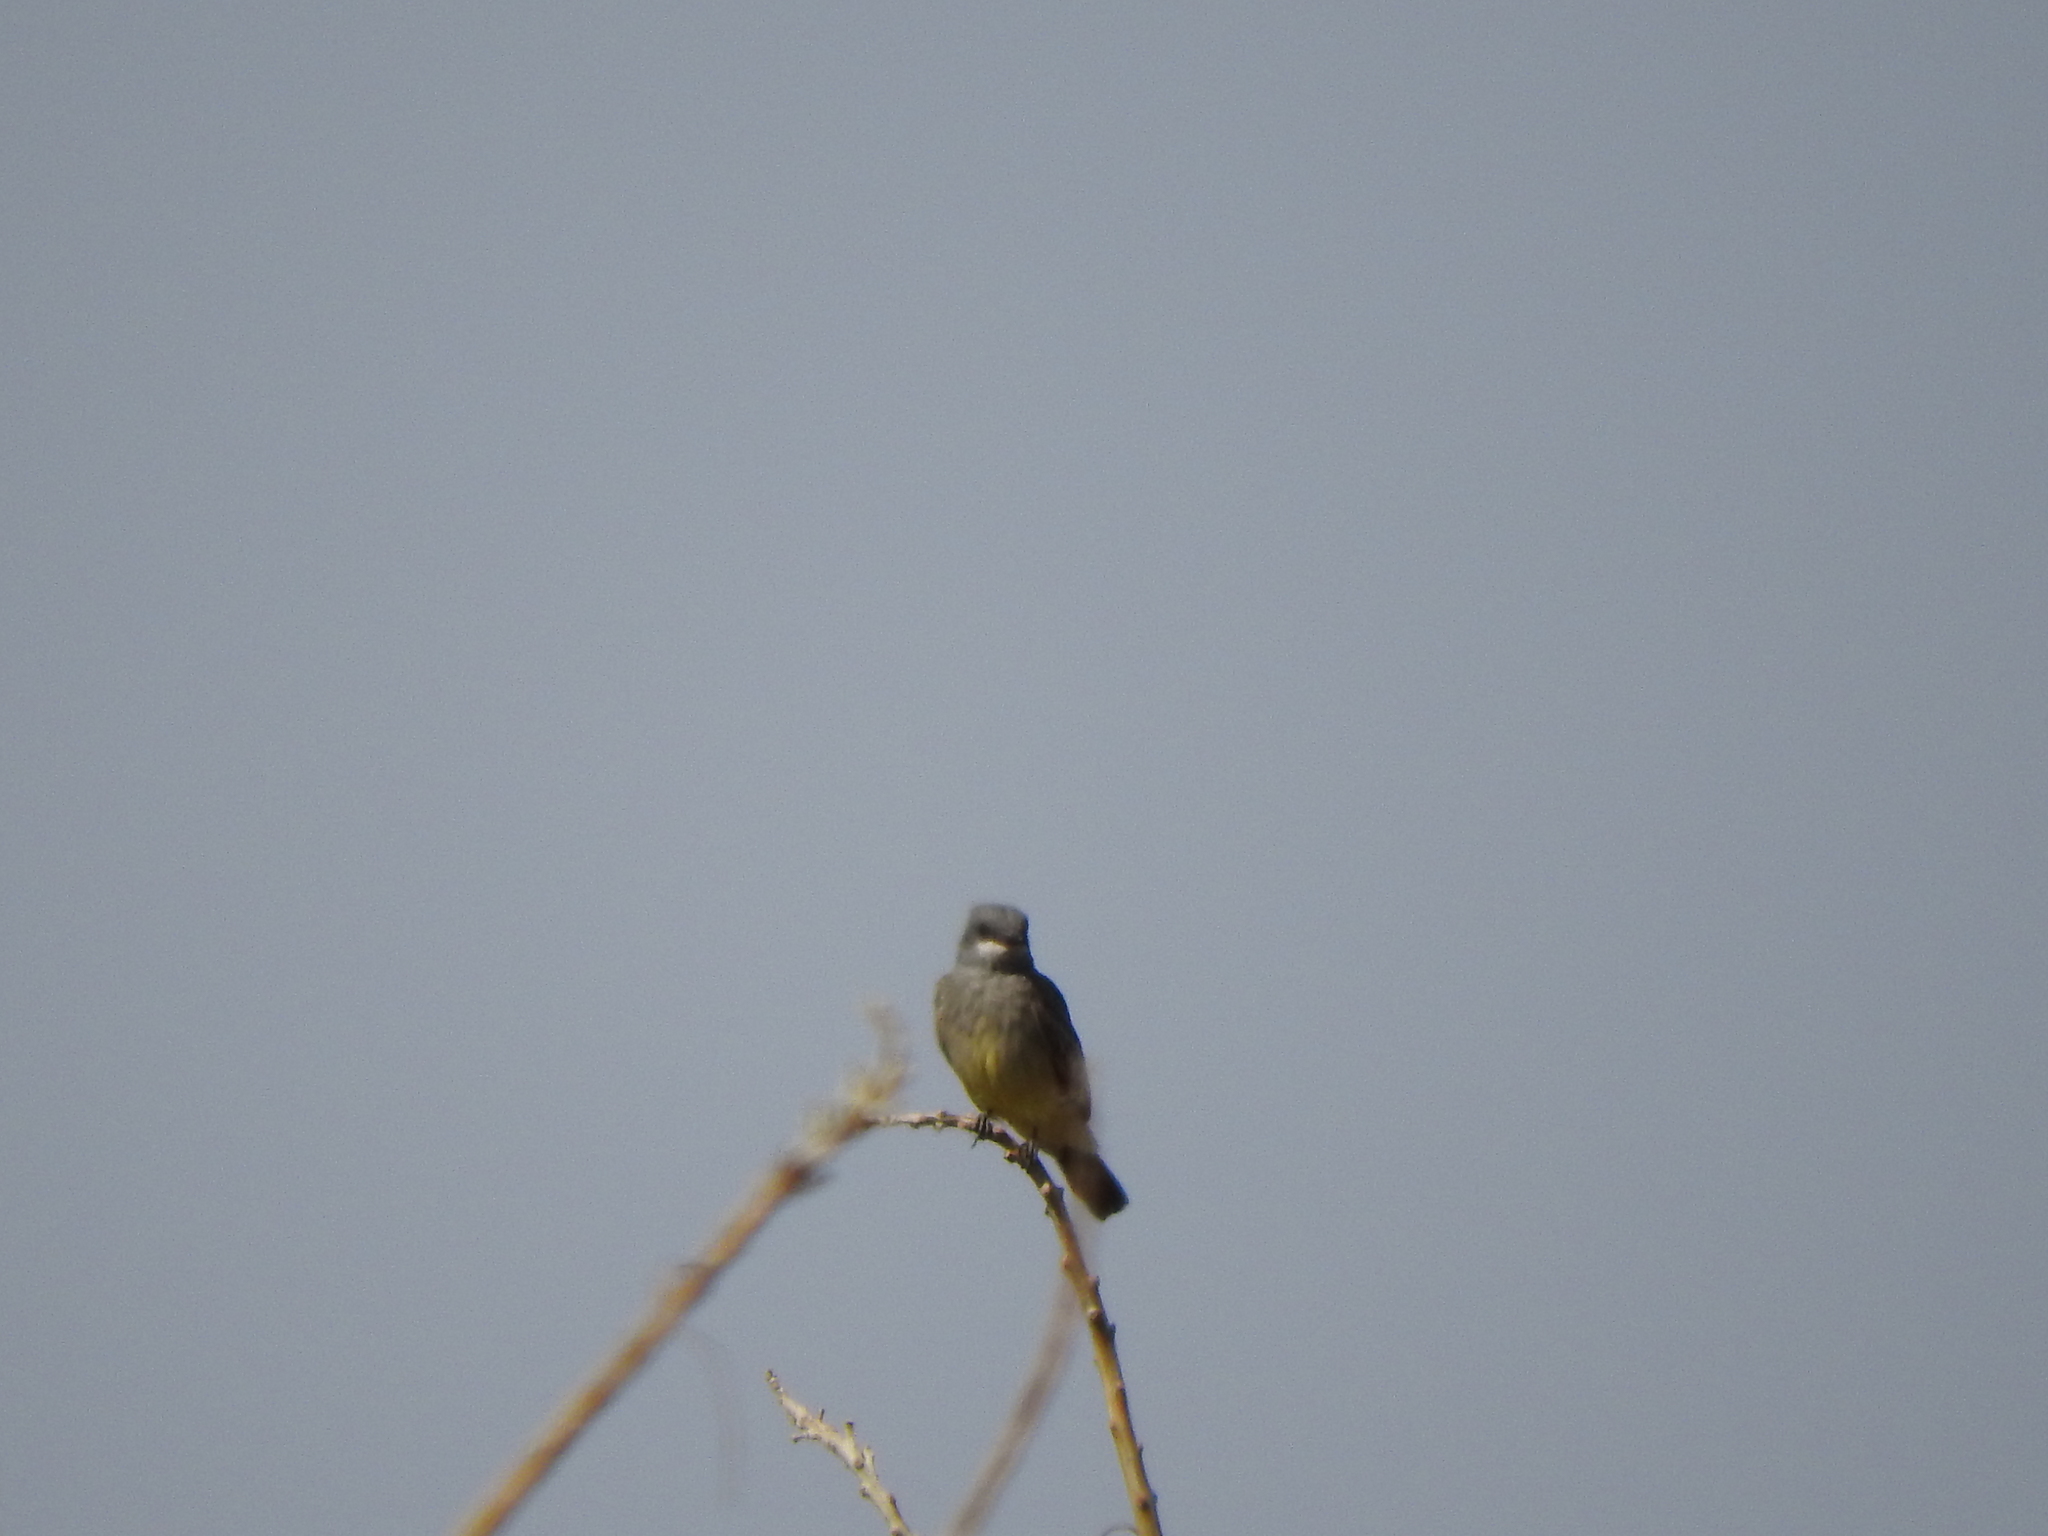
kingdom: Animalia
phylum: Chordata
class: Aves
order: Passeriformes
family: Tyrannidae
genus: Tyrannus
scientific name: Tyrannus vociferans
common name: Cassin's kingbird
